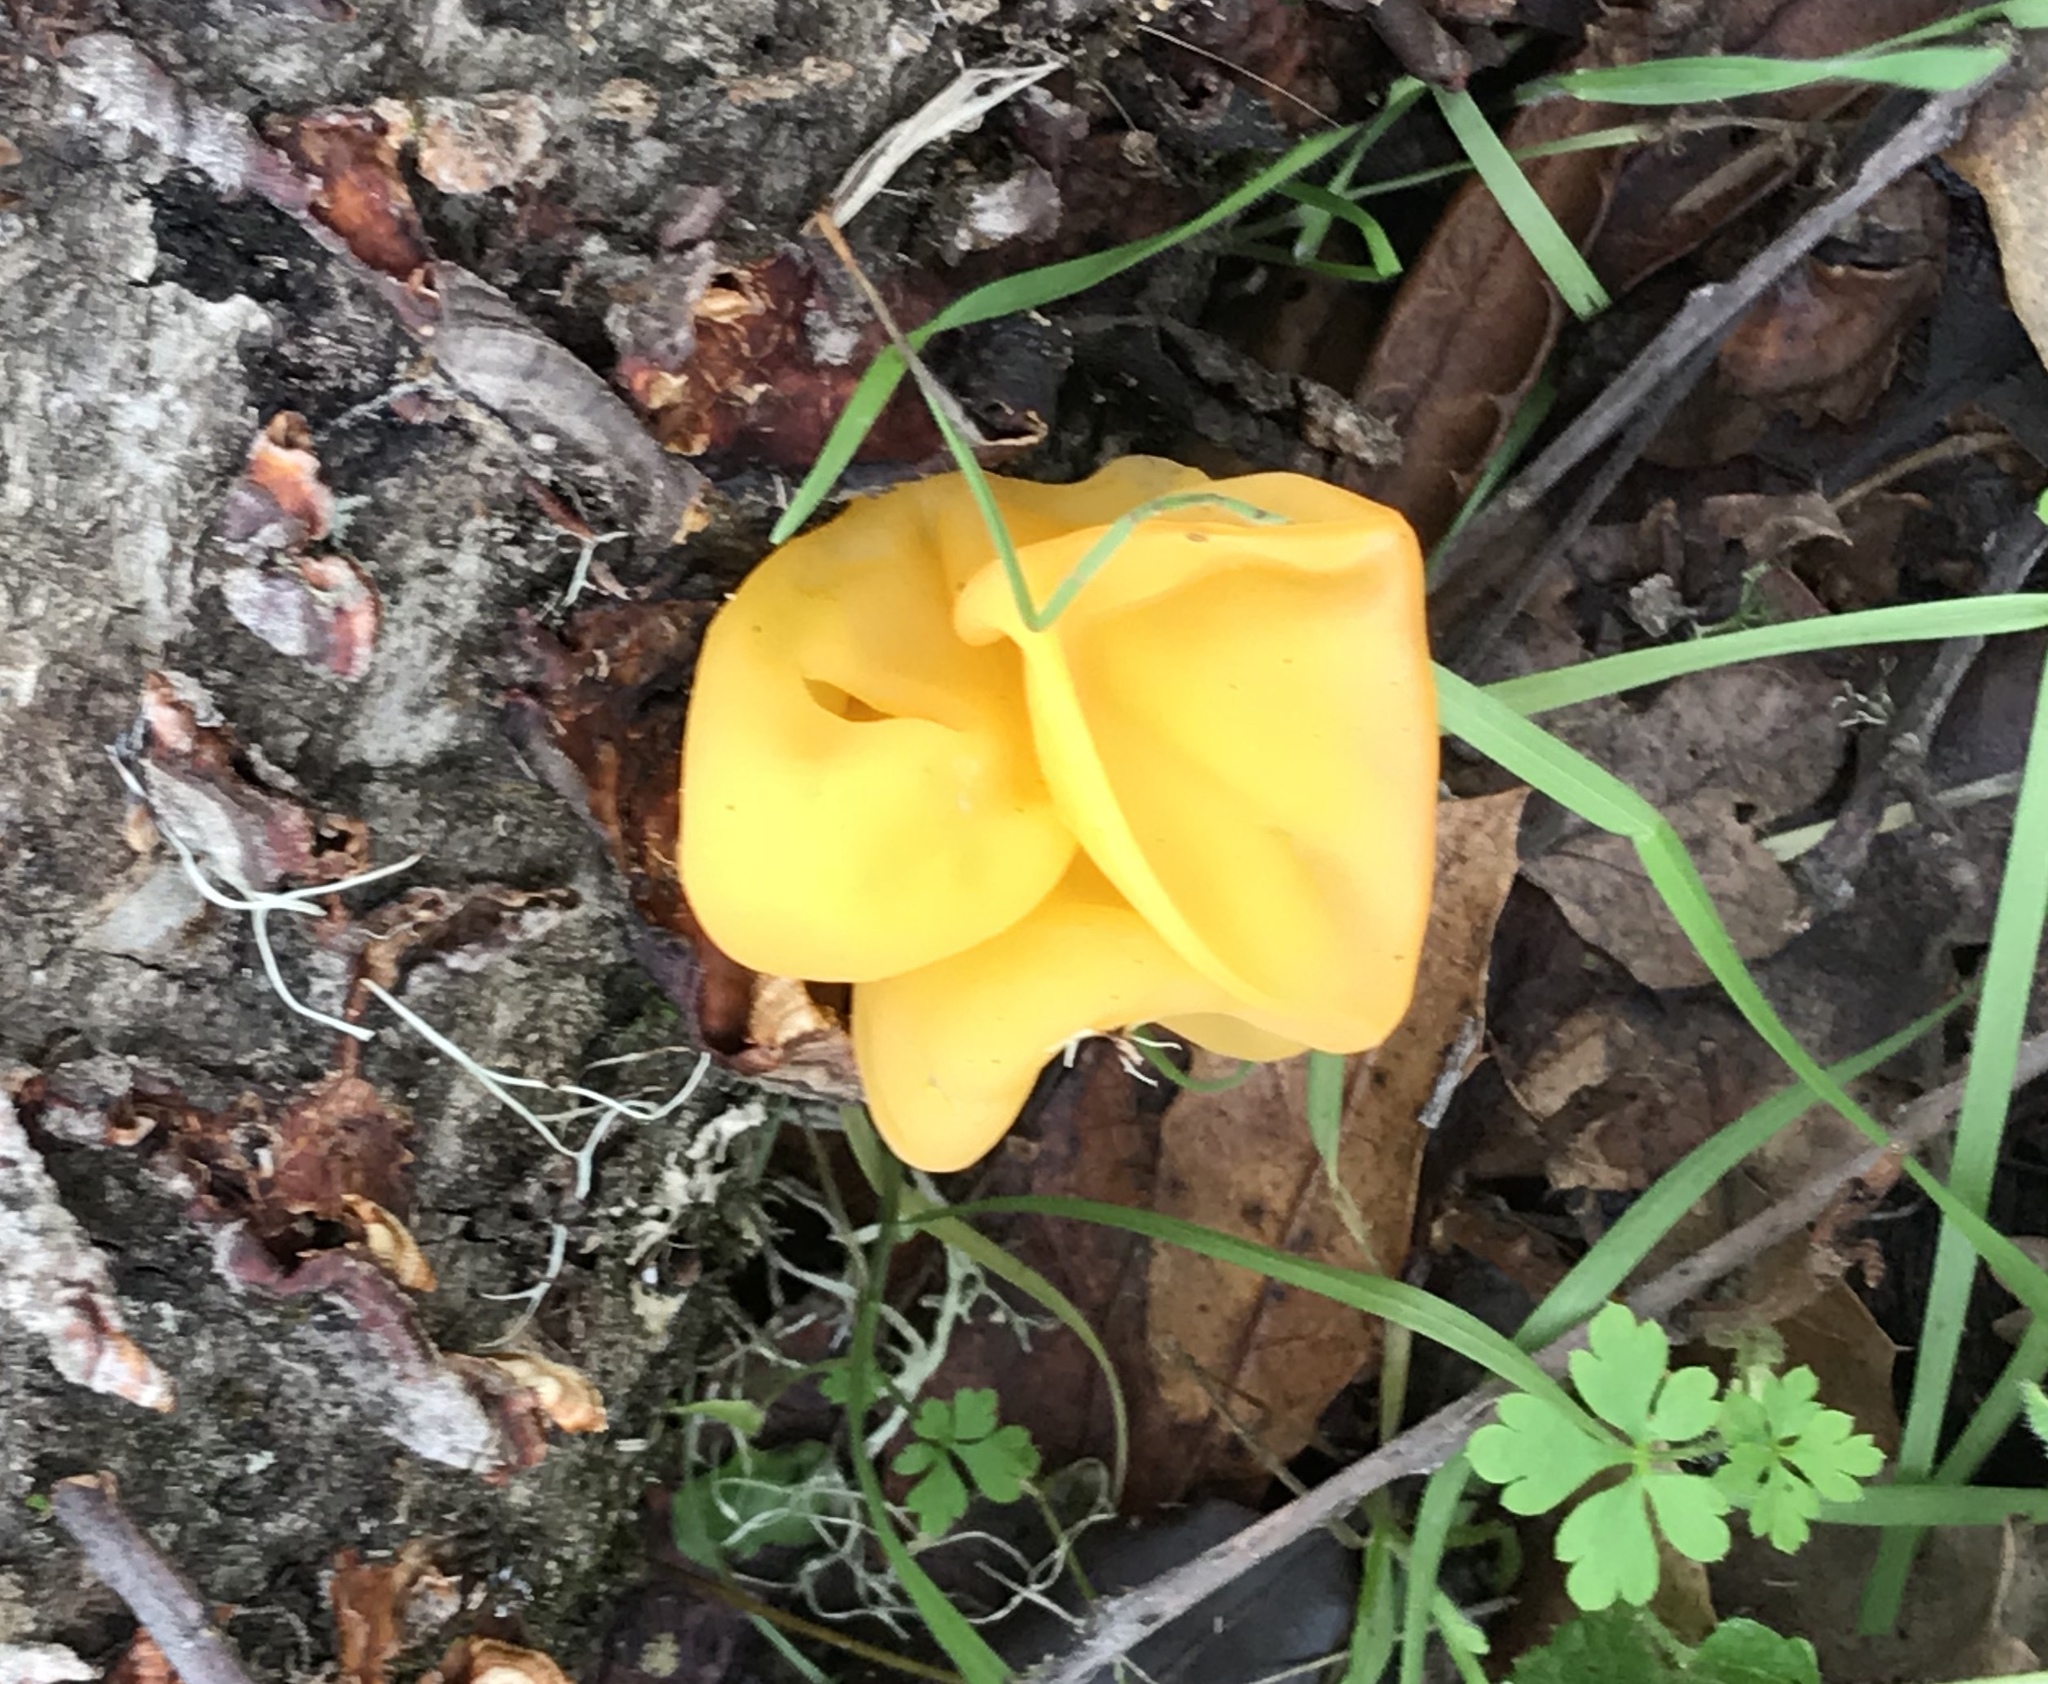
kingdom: Fungi
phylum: Basidiomycota
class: Tremellomycetes
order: Tremellales
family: Naemateliaceae
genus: Naematelia
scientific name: Naematelia aurantia
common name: Golden ear
